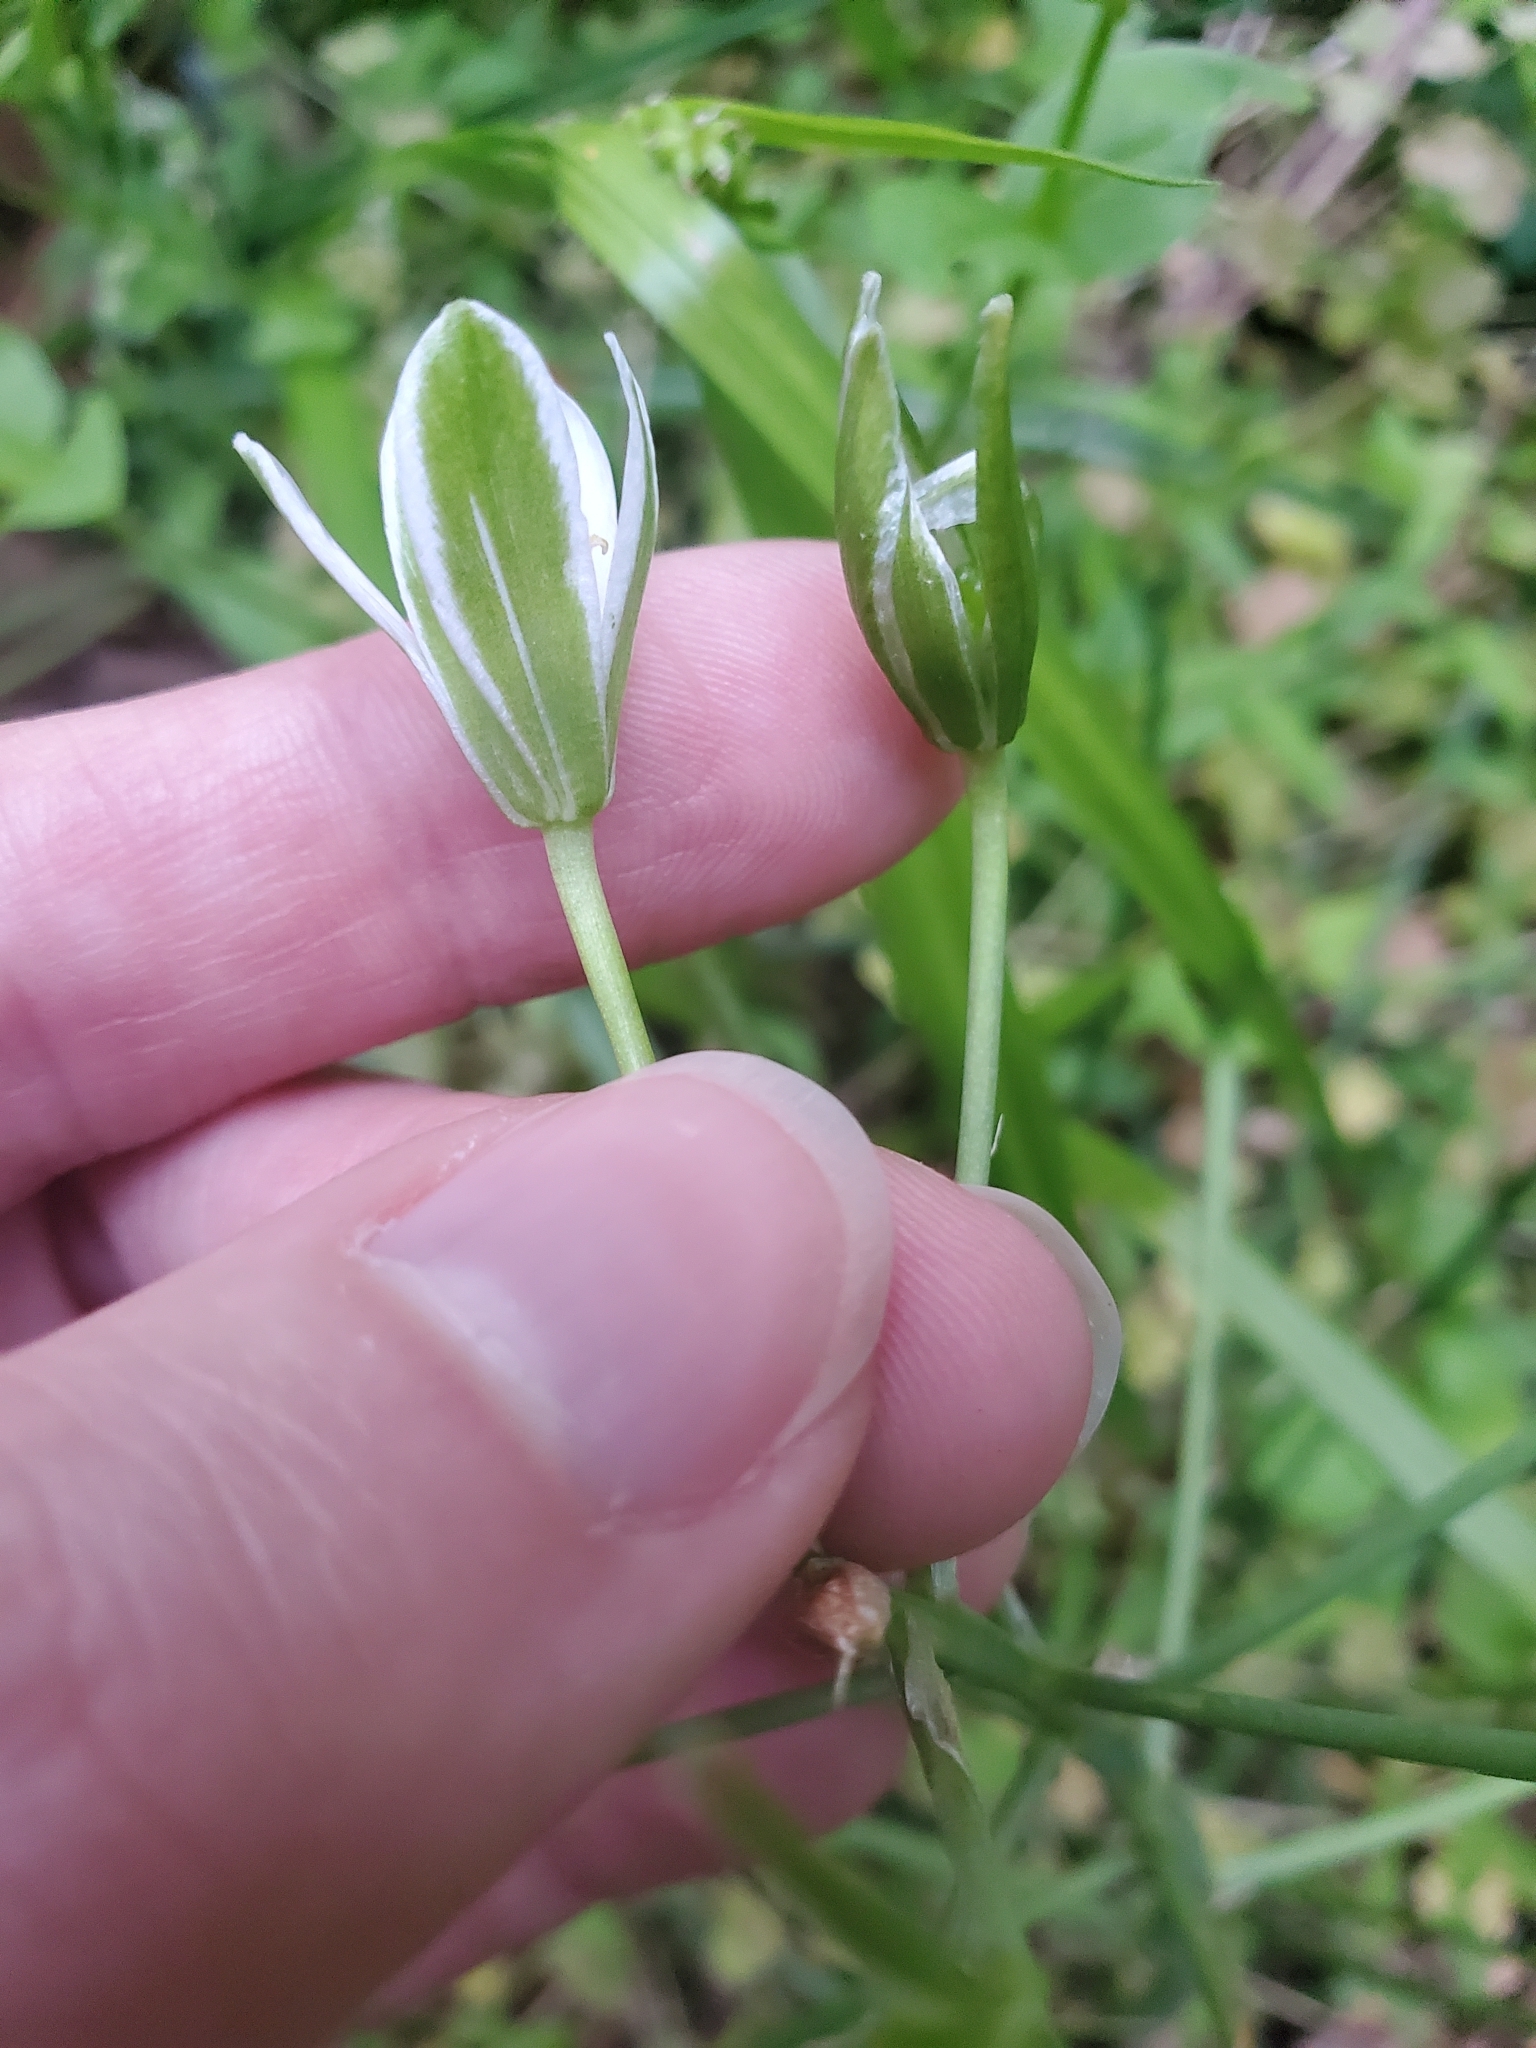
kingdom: Plantae
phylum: Tracheophyta
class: Liliopsida
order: Asparagales
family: Asparagaceae
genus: Ornithogalum
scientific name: Ornithogalum umbellatum
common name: Garden star-of-bethlehem
